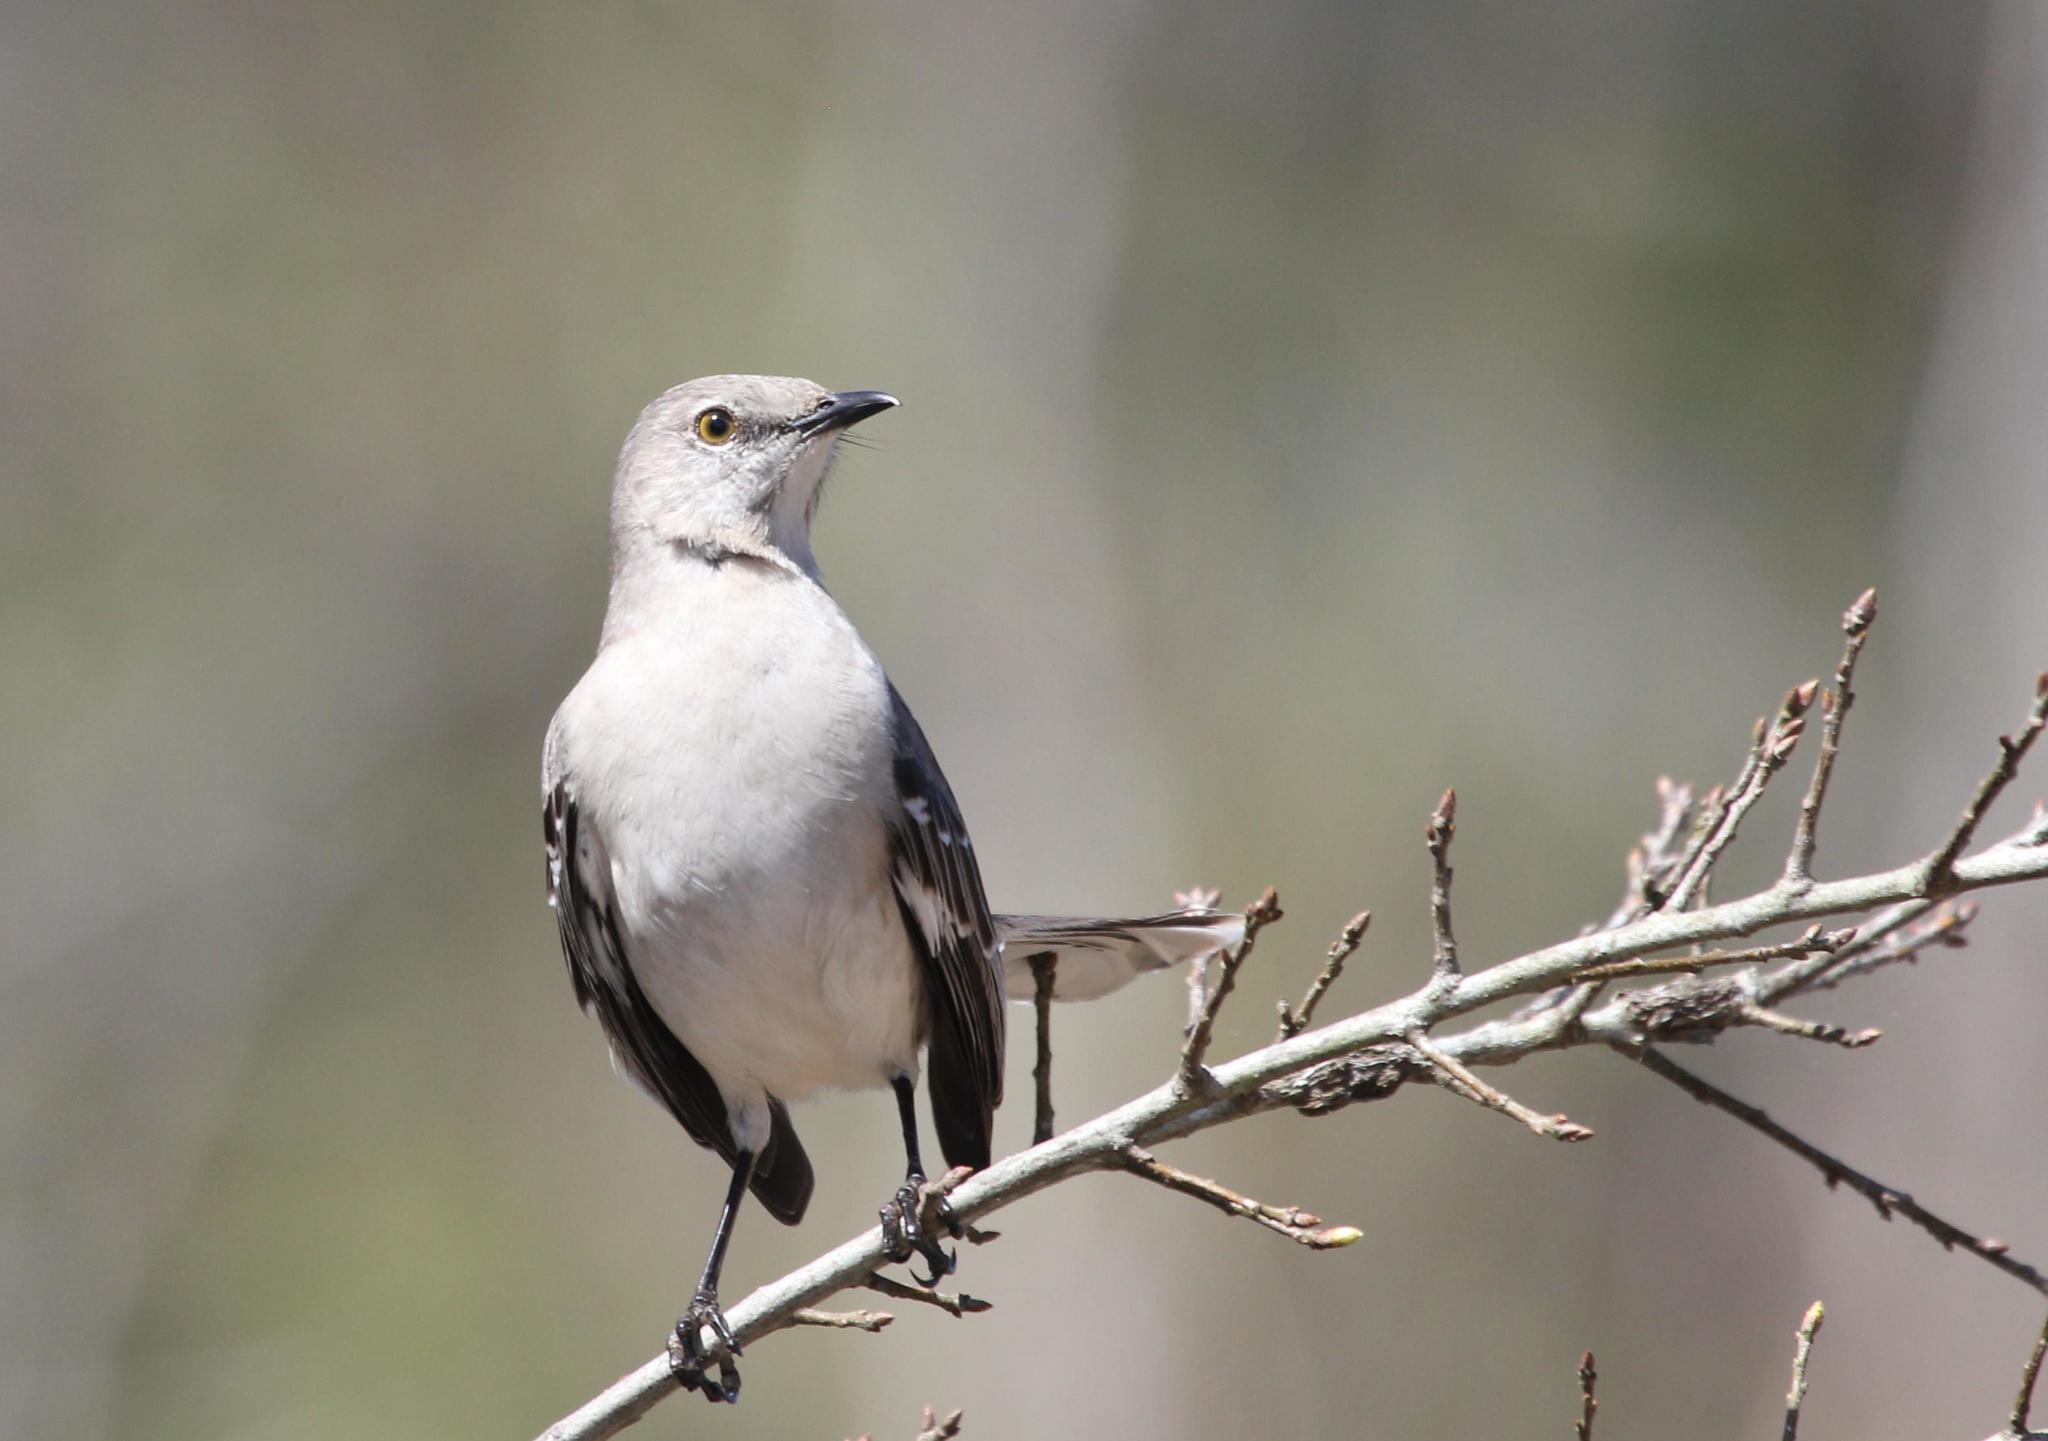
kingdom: Animalia
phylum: Chordata
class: Aves
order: Passeriformes
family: Mimidae
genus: Mimus
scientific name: Mimus polyglottos
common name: Northern mockingbird
